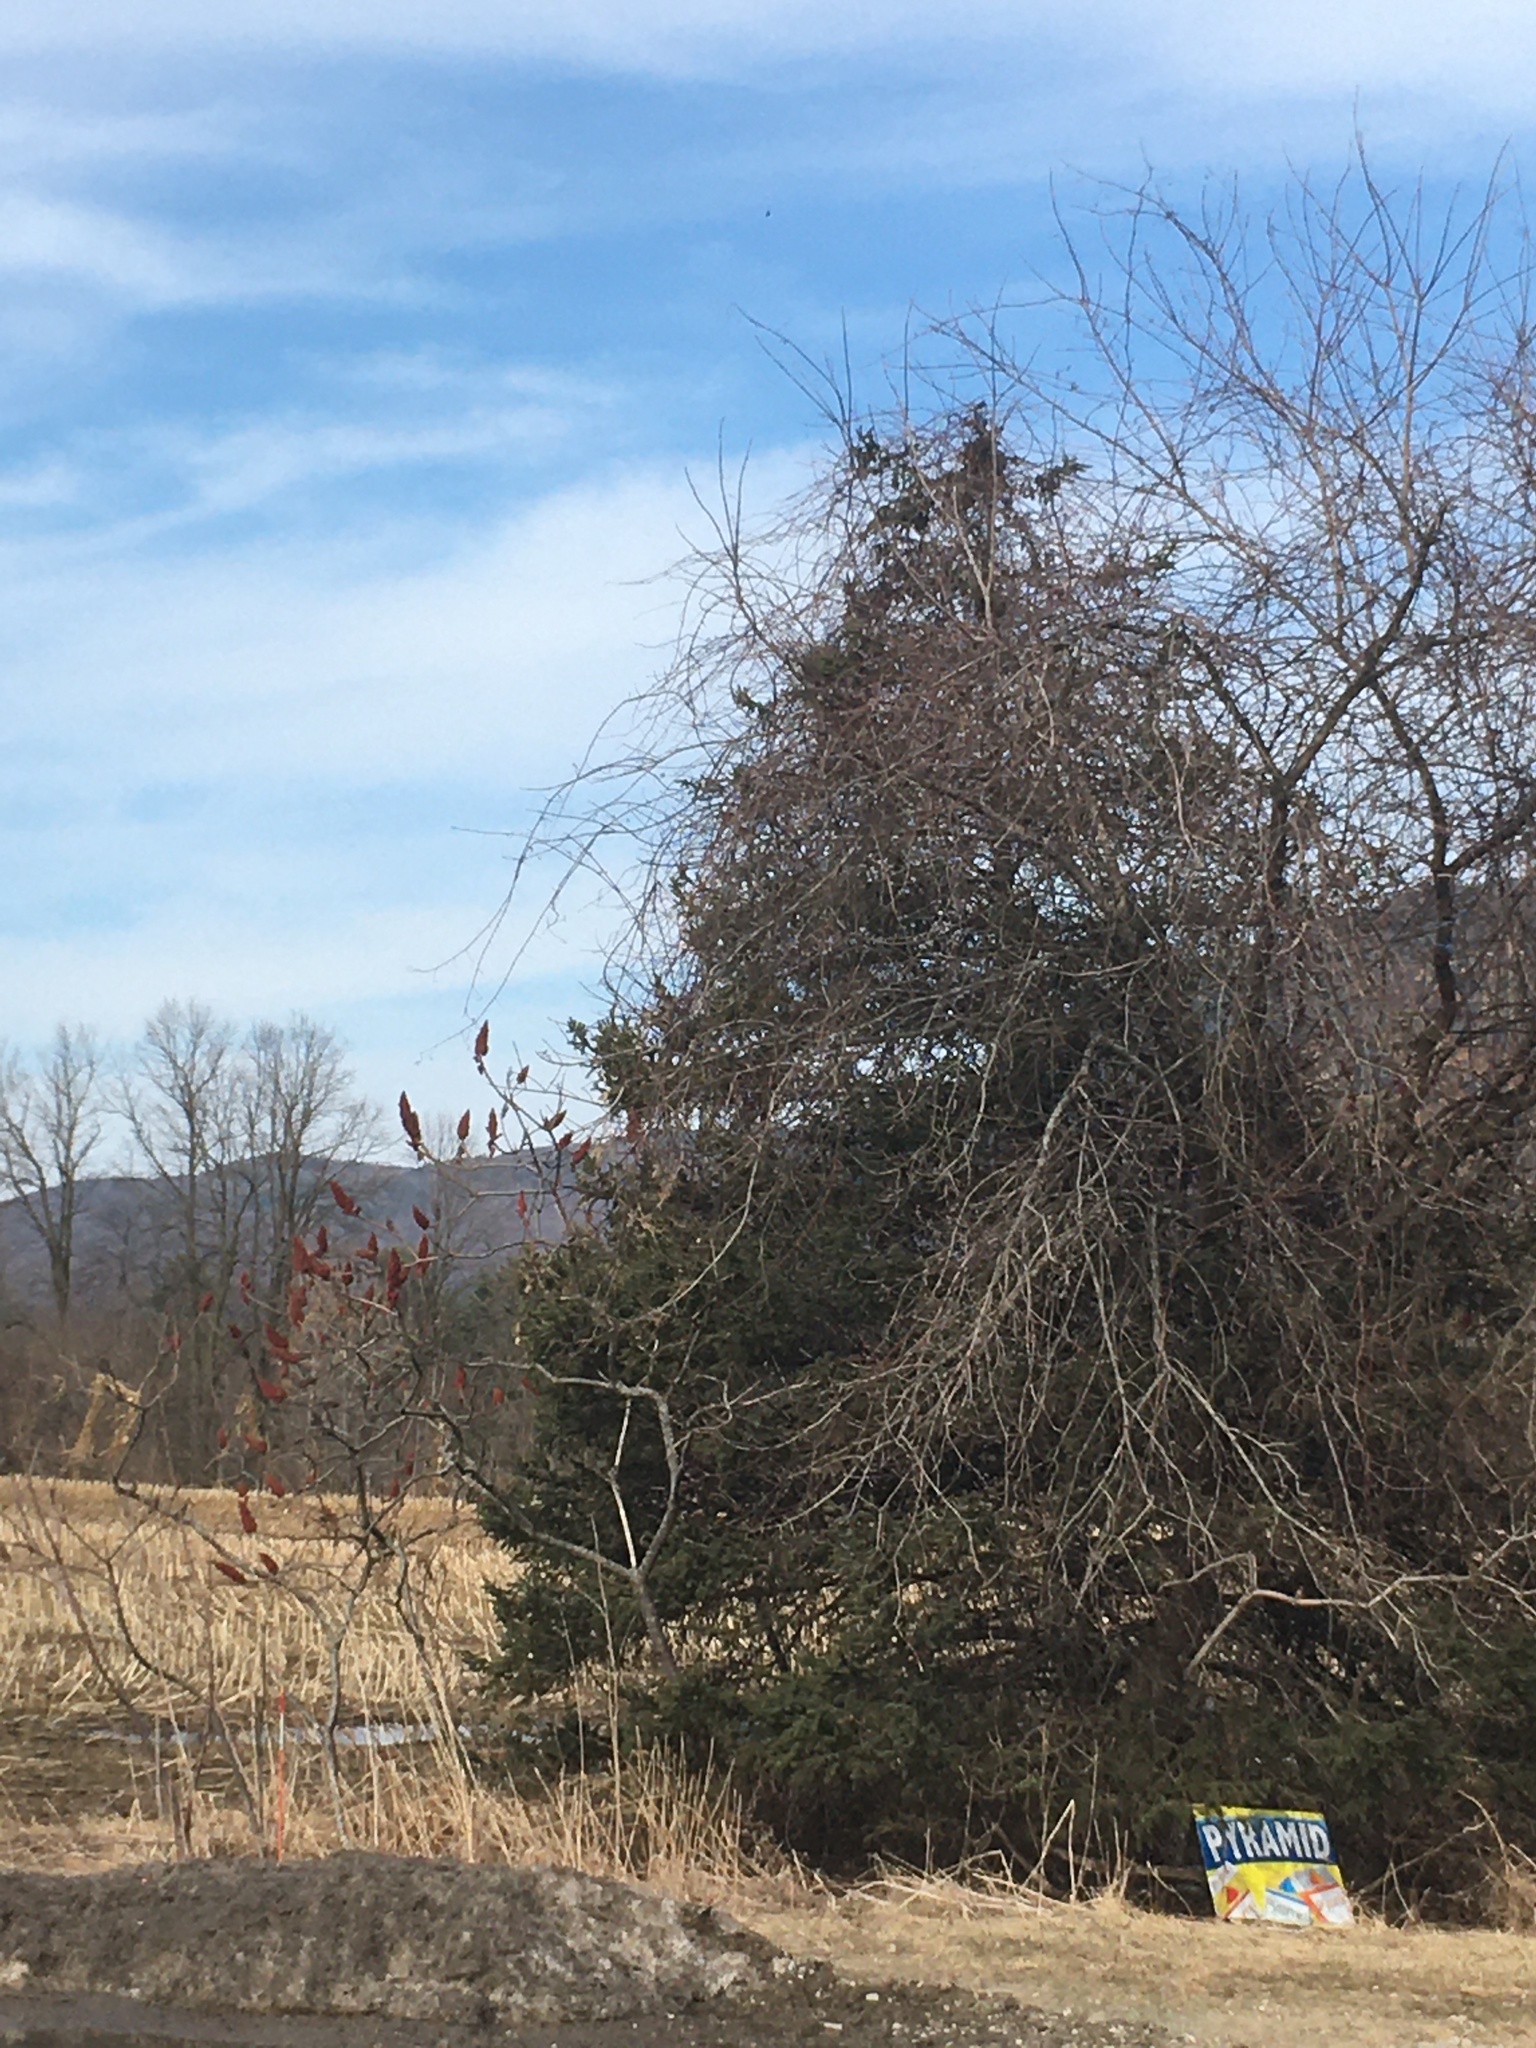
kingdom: Plantae
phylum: Tracheophyta
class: Magnoliopsida
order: Sapindales
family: Anacardiaceae
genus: Rhus
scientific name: Rhus typhina
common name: Staghorn sumac
